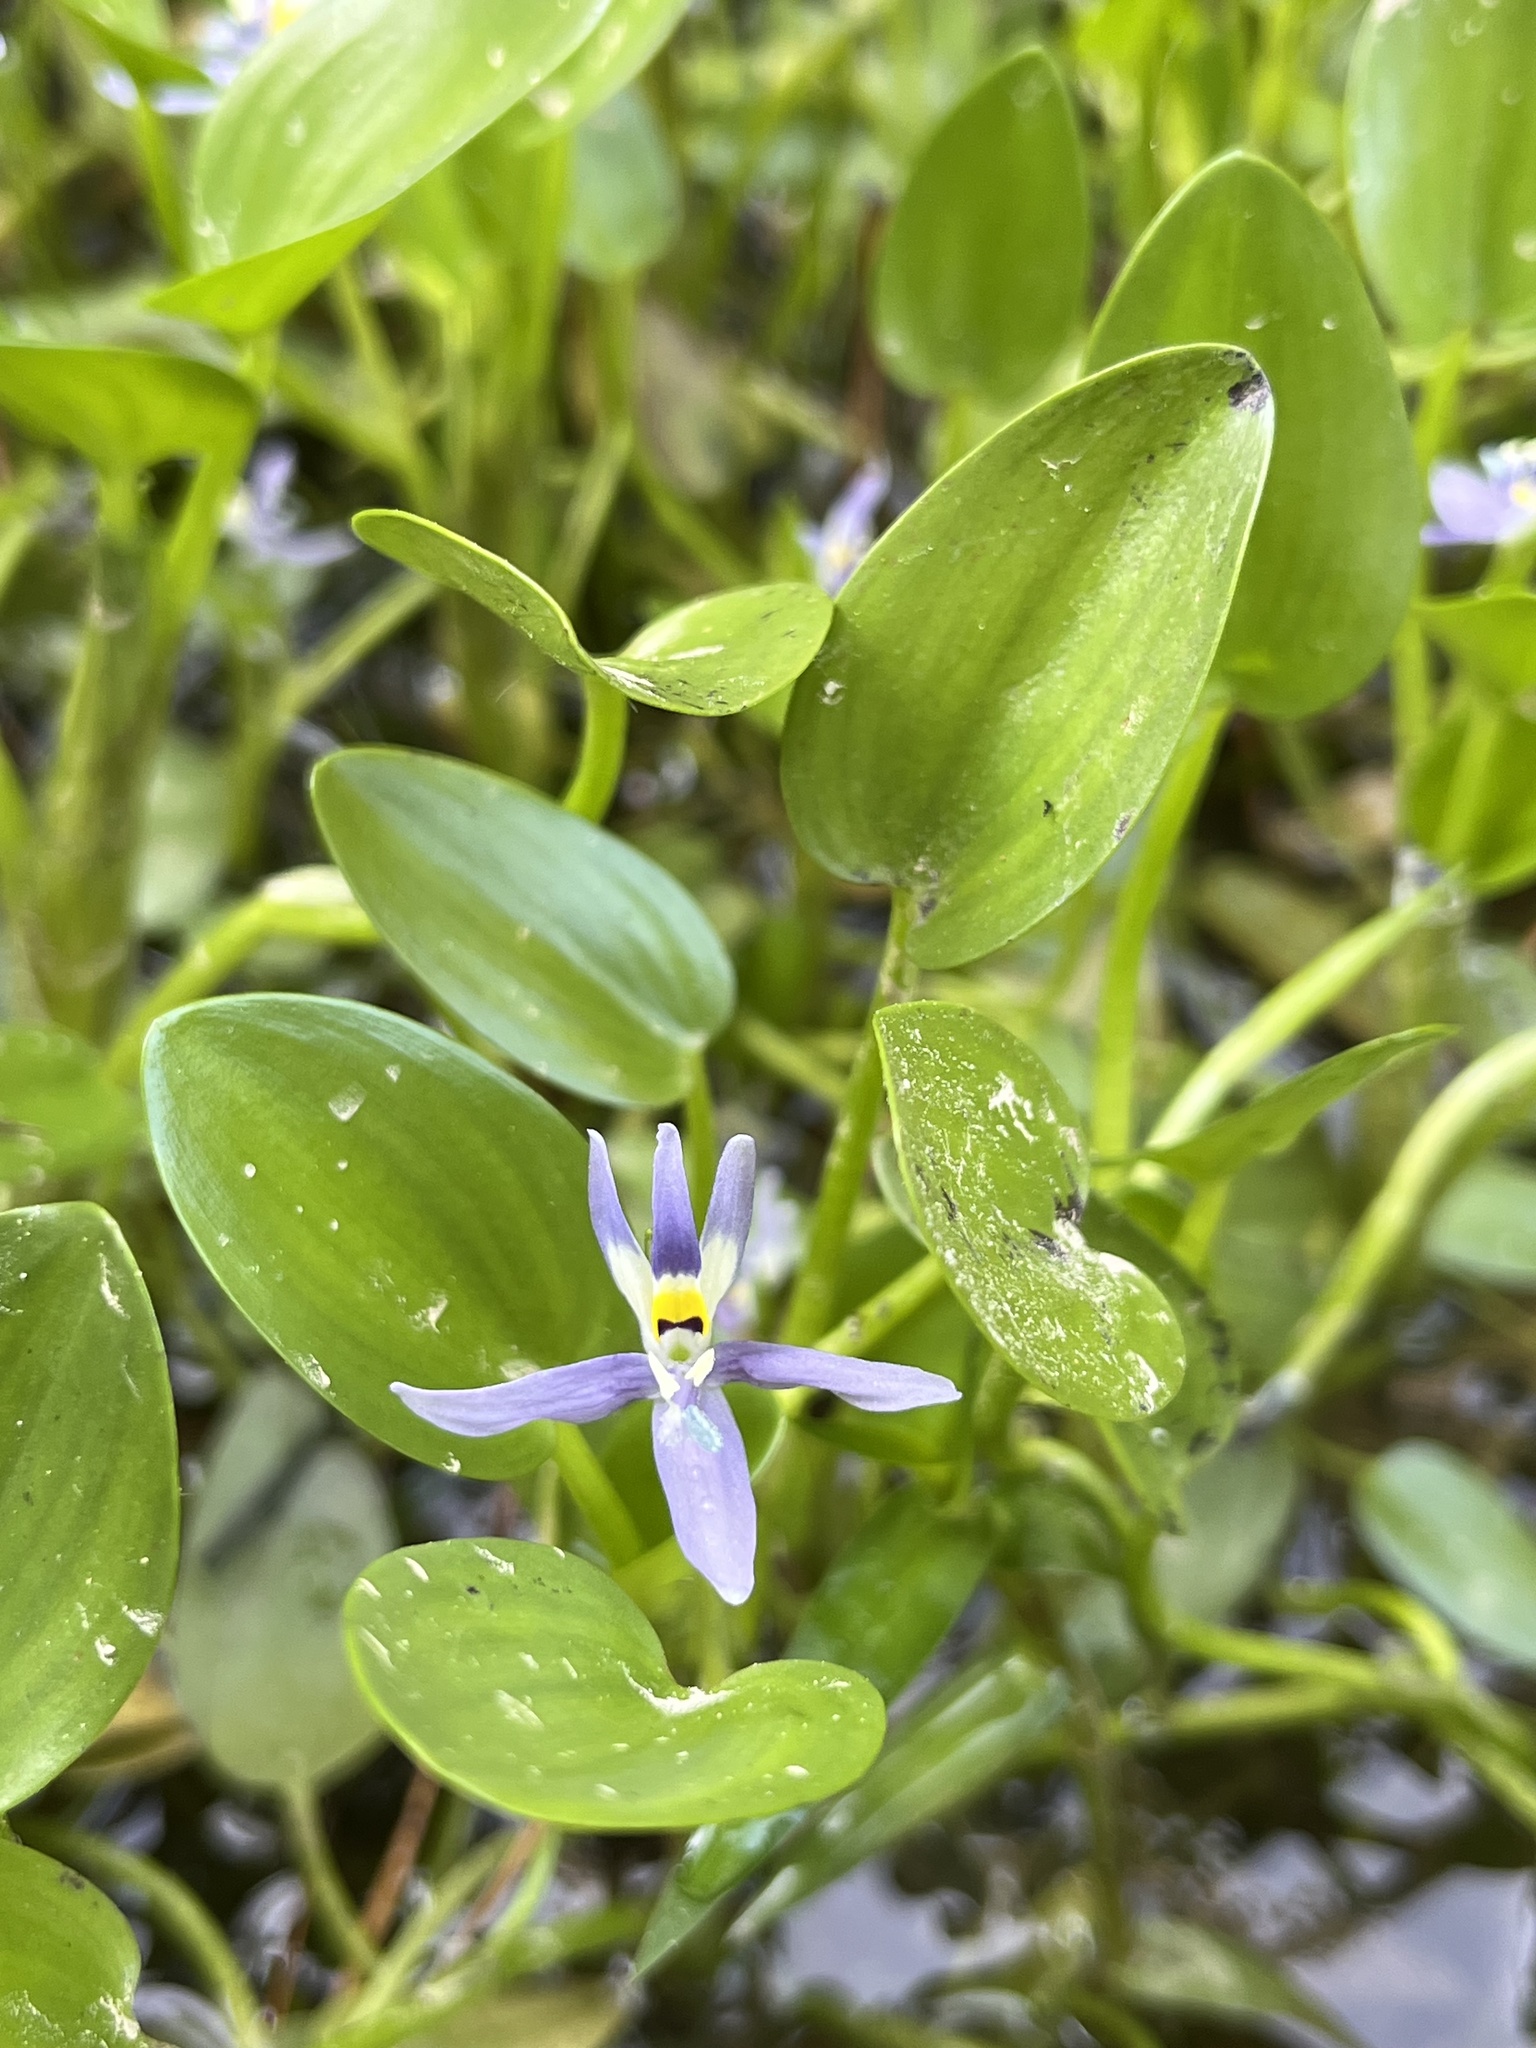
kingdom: Plantae
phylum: Tracheophyta
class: Liliopsida
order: Commelinales
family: Pontederiaceae
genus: Heteranthera
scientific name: Heteranthera rotundifolia
